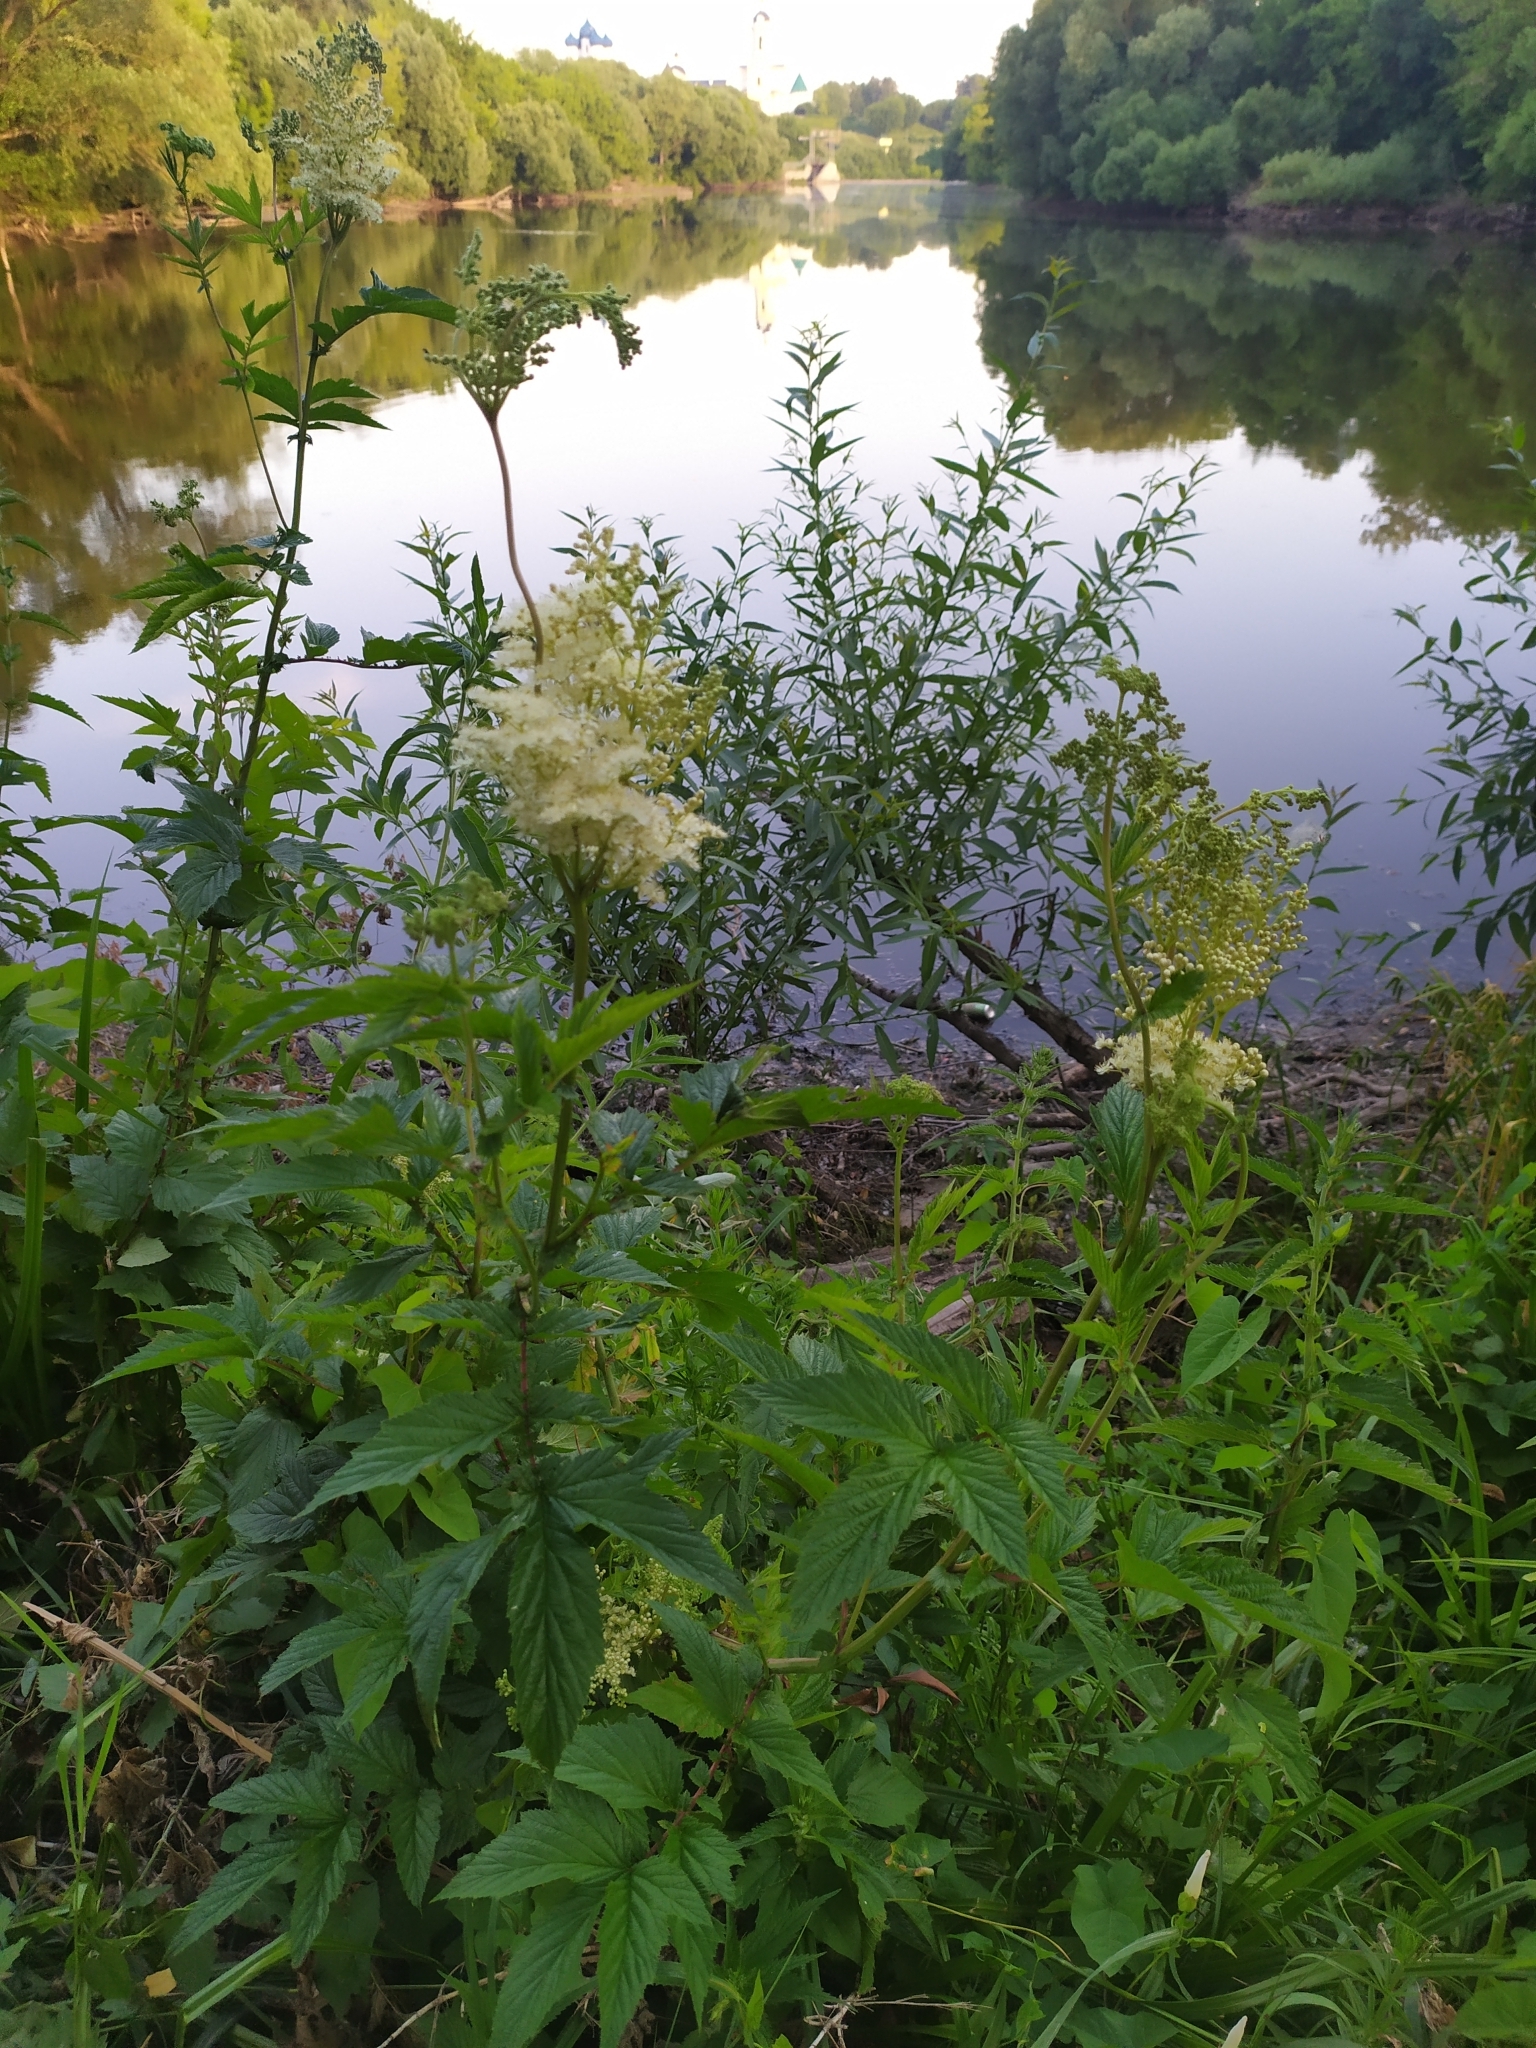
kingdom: Plantae
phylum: Tracheophyta
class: Magnoliopsida
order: Rosales
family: Rosaceae
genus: Filipendula
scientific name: Filipendula ulmaria
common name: Meadowsweet
